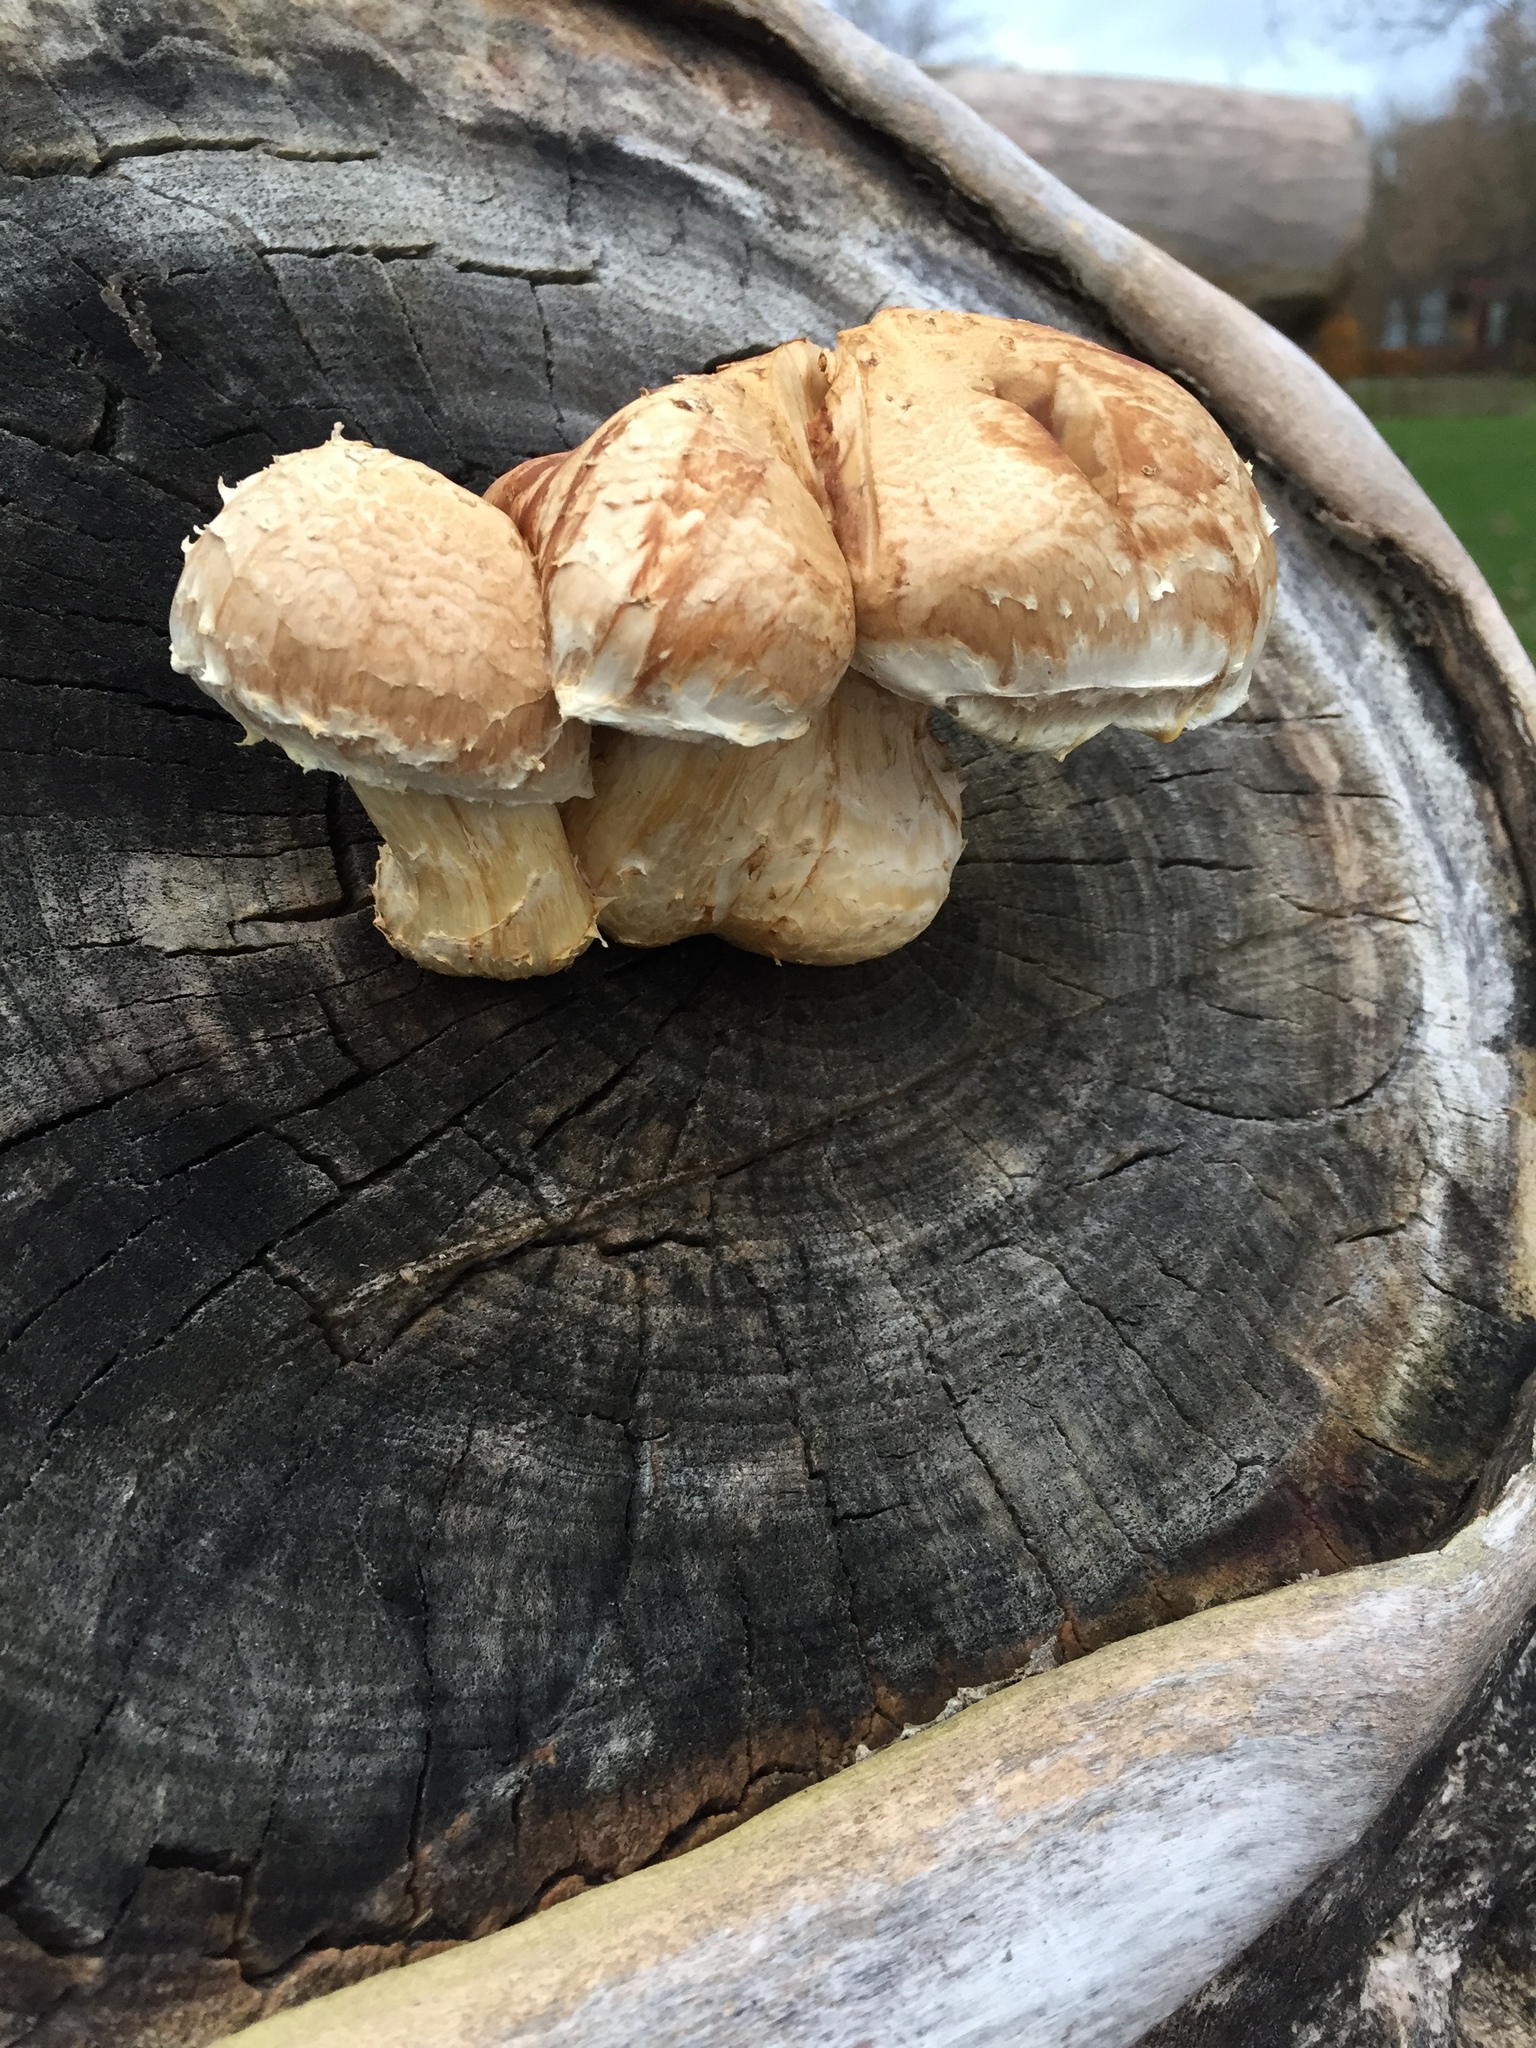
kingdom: Fungi
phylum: Basidiomycota
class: Agaricomycetes
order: Agaricales
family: Strophariaceae
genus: Pholiota
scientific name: Pholiota populnea
